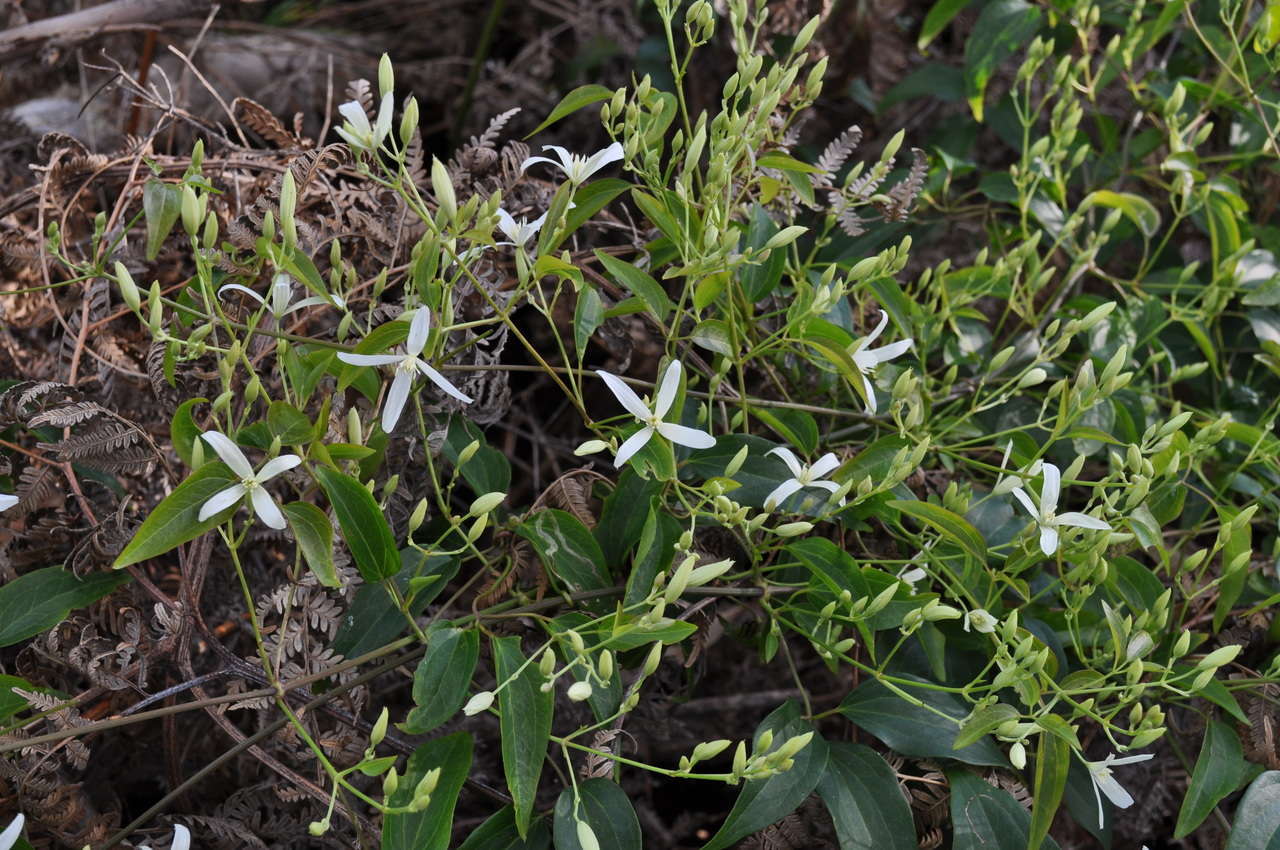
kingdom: Plantae
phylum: Tracheophyta
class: Magnoliopsida
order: Ranunculales
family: Ranunculaceae
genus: Clematis
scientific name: Clematis glycinoides
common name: Forest clematis
